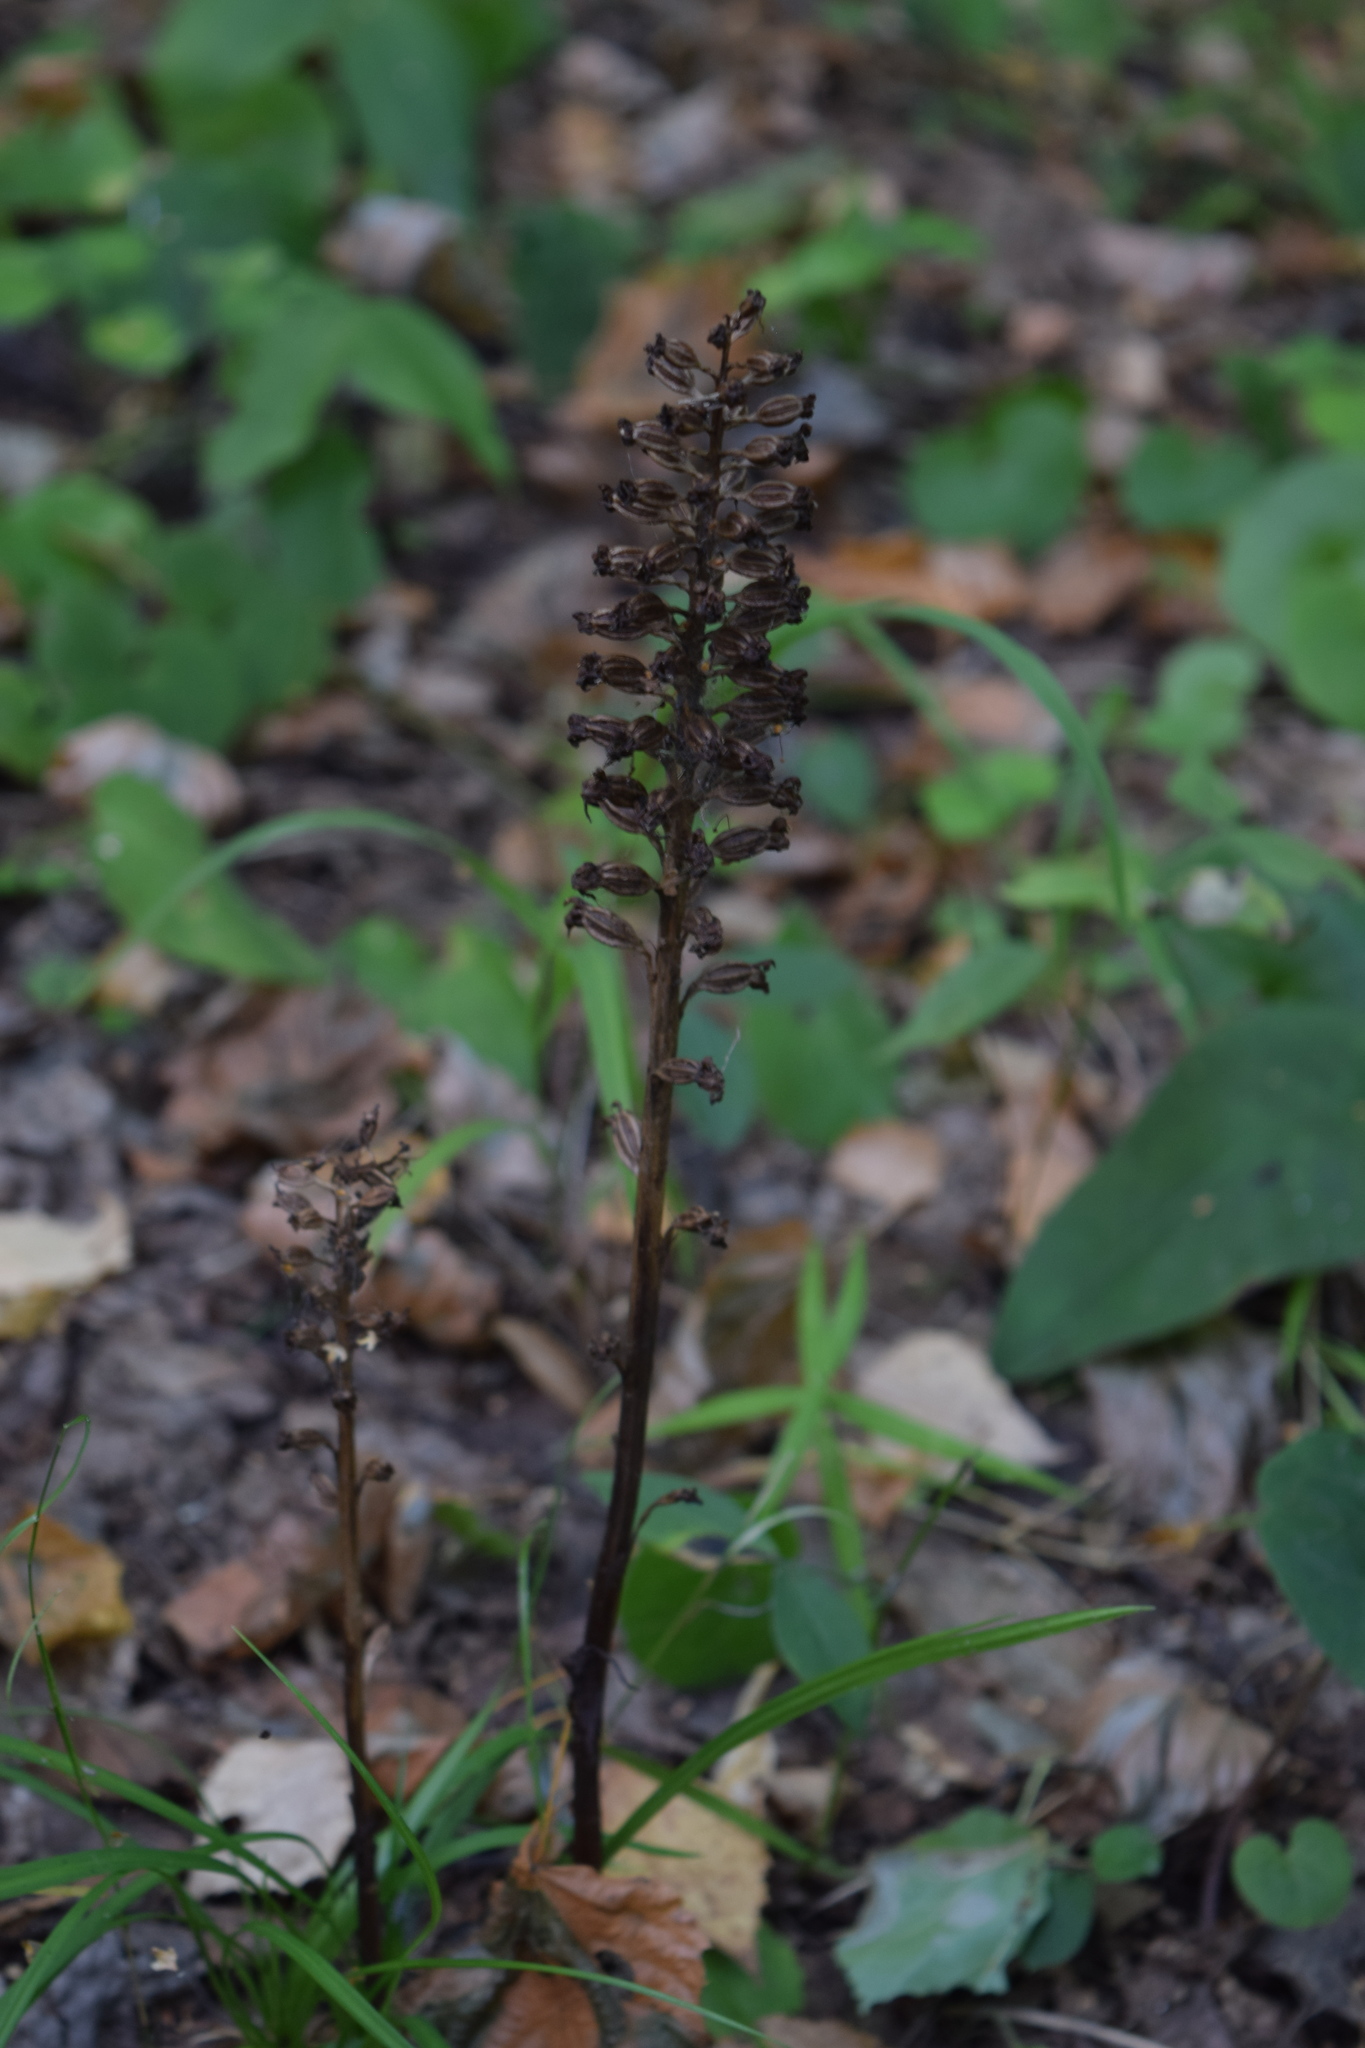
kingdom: Plantae
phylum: Tracheophyta
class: Liliopsida
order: Asparagales
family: Orchidaceae
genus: Neottia
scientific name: Neottia nidus-avis
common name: Bird's-nest orchid
